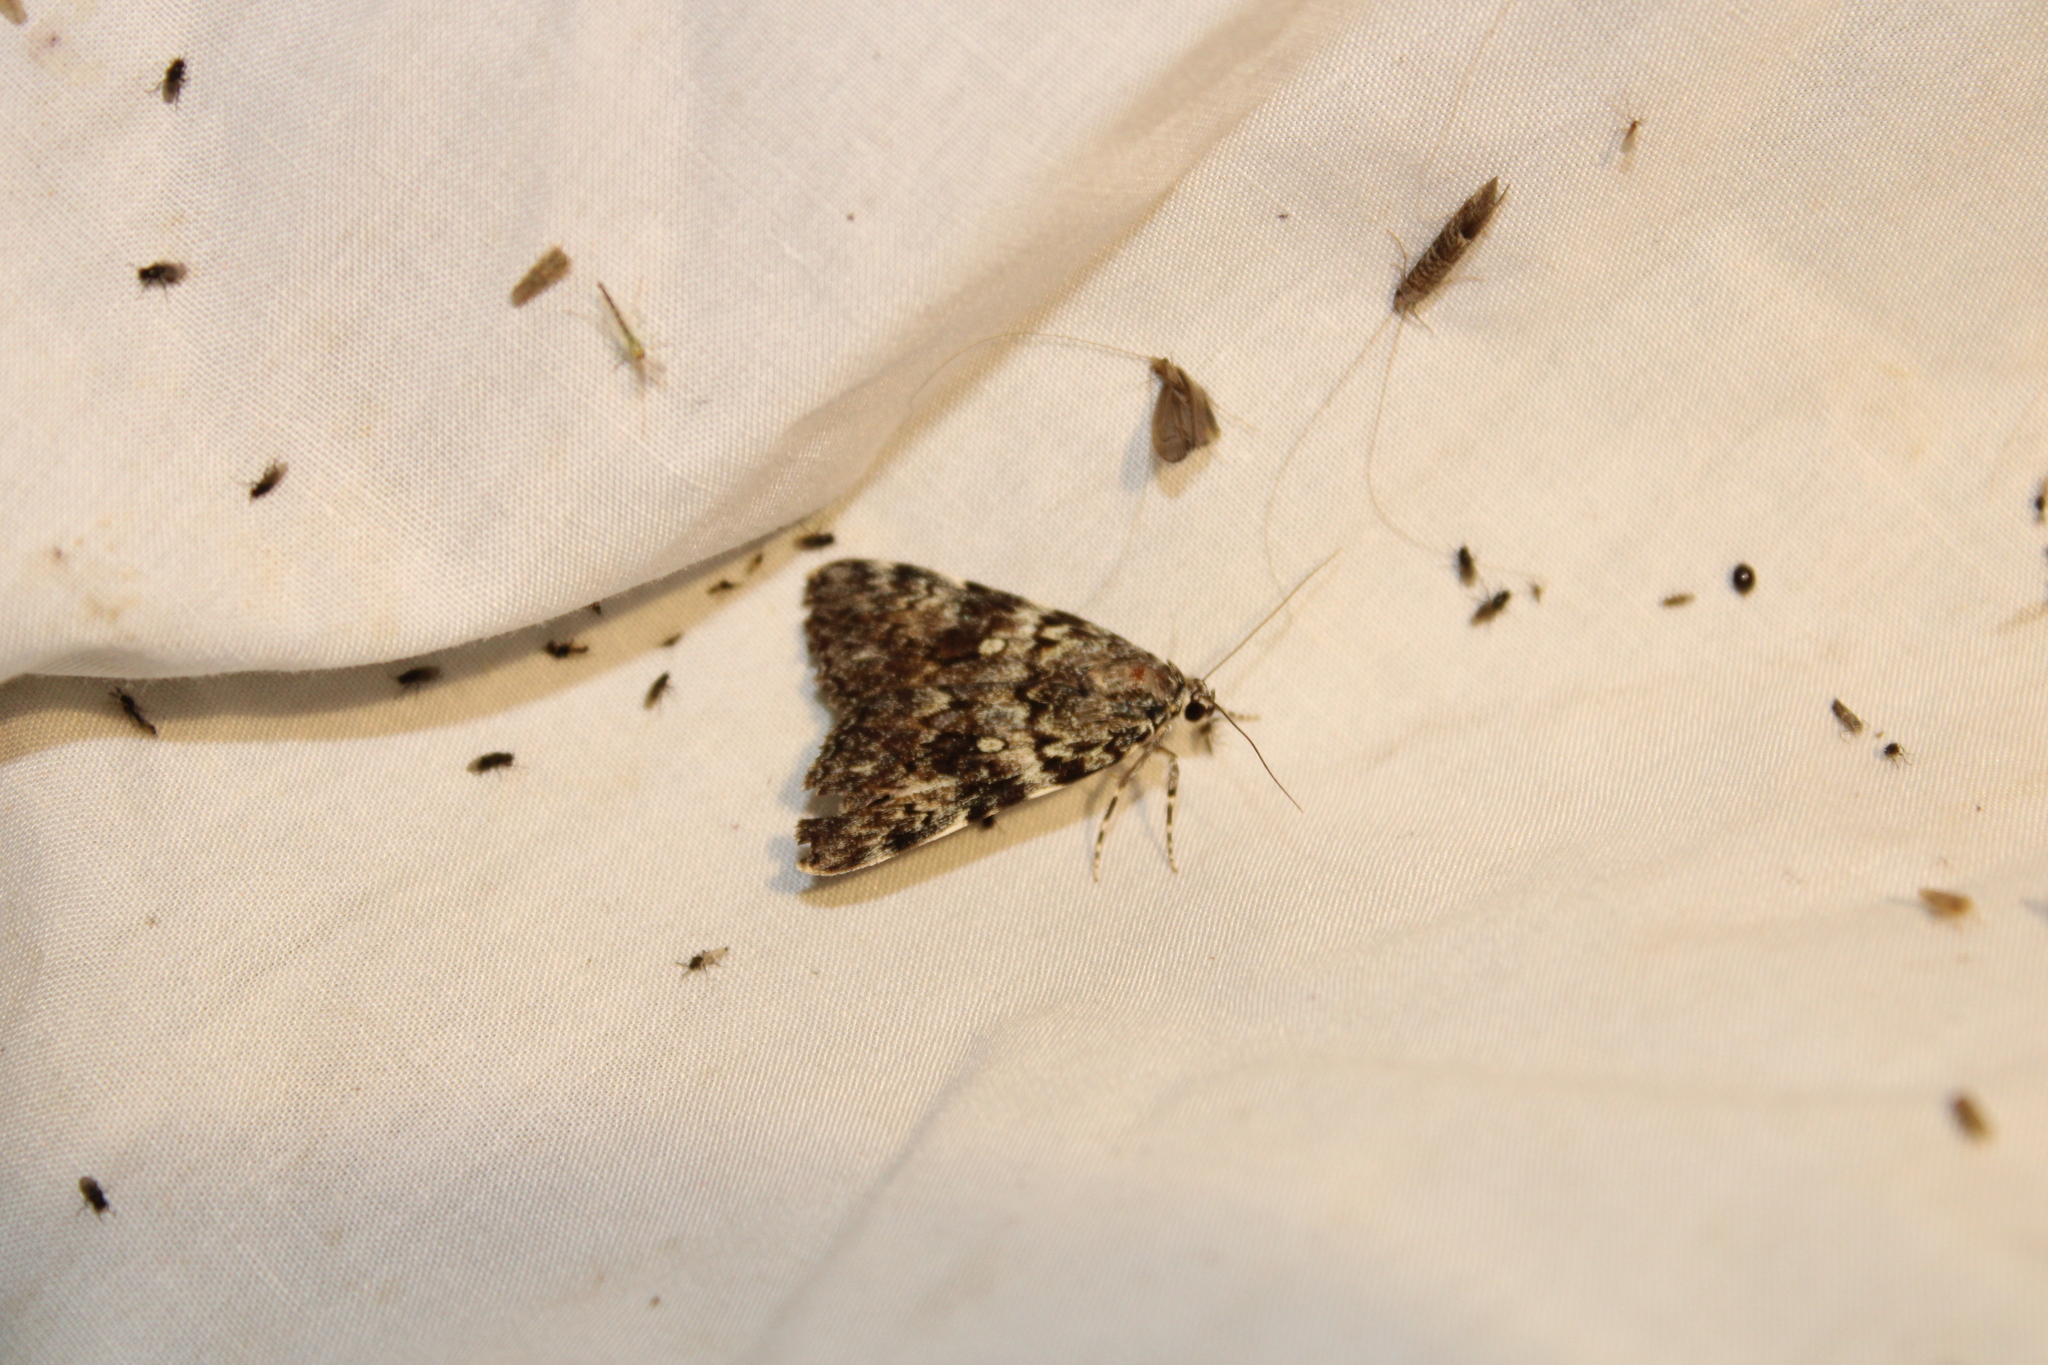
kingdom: Animalia
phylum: Arthropoda
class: Insecta
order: Lepidoptera
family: Erebidae
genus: Catocala
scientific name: Catocala lineella
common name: Little lined underwing
